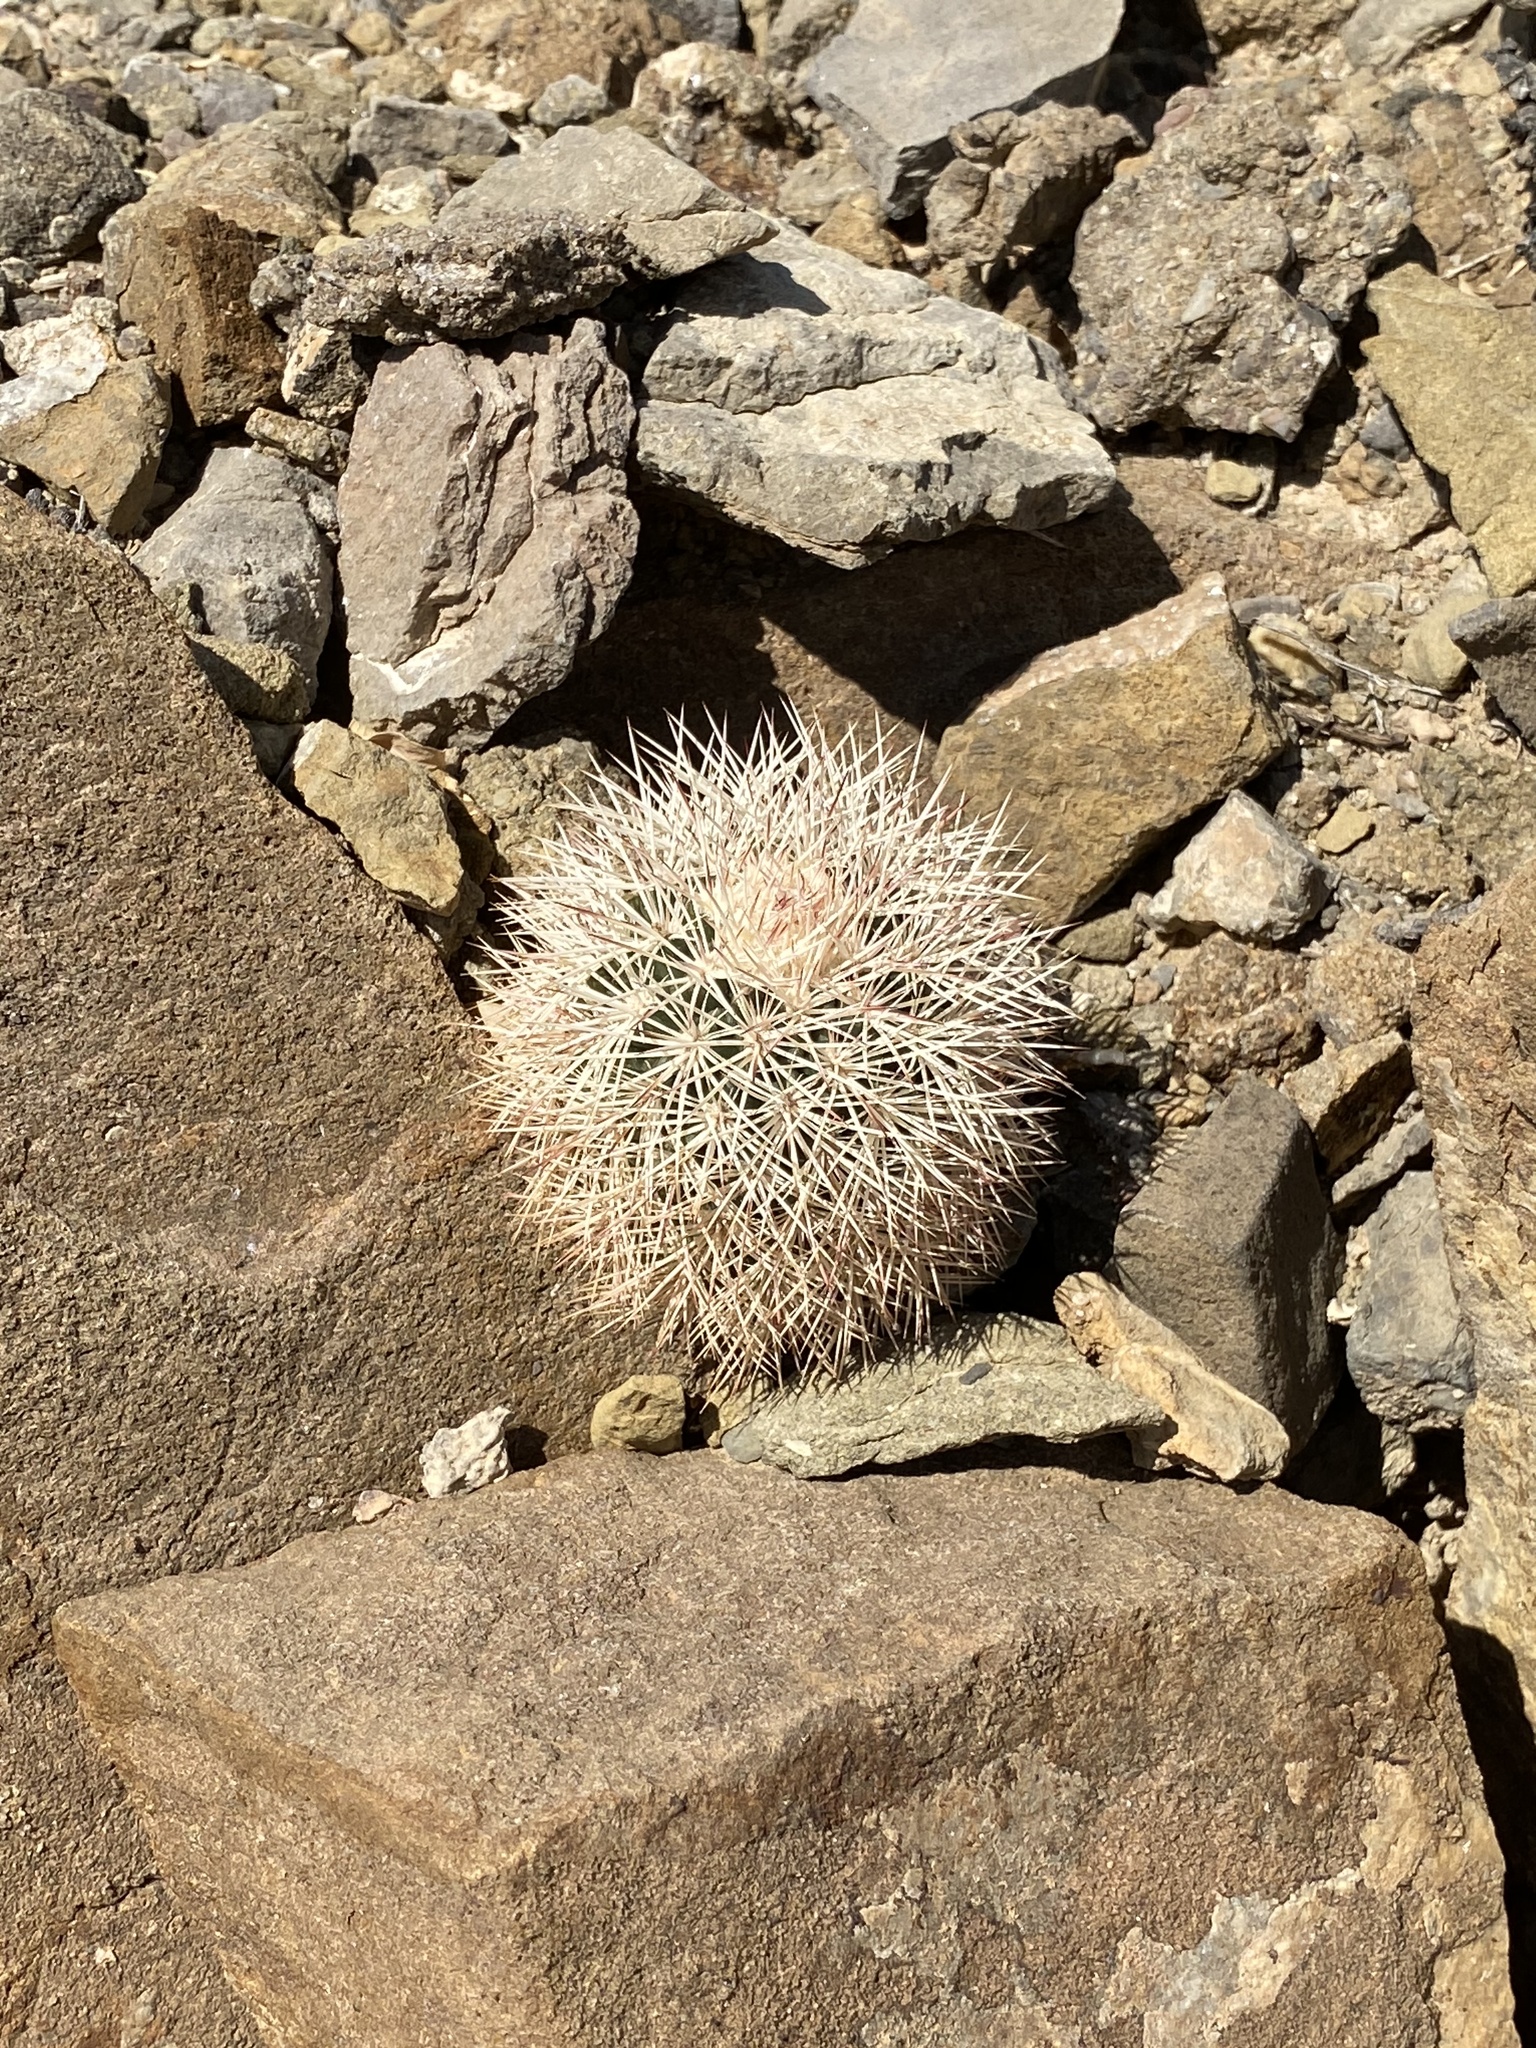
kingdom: Plantae
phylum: Tracheophyta
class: Magnoliopsida
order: Caryophyllales
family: Cactaceae
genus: Echinocereus
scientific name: Echinocereus dasyacanthus
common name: Spiny hedgehog cactus
